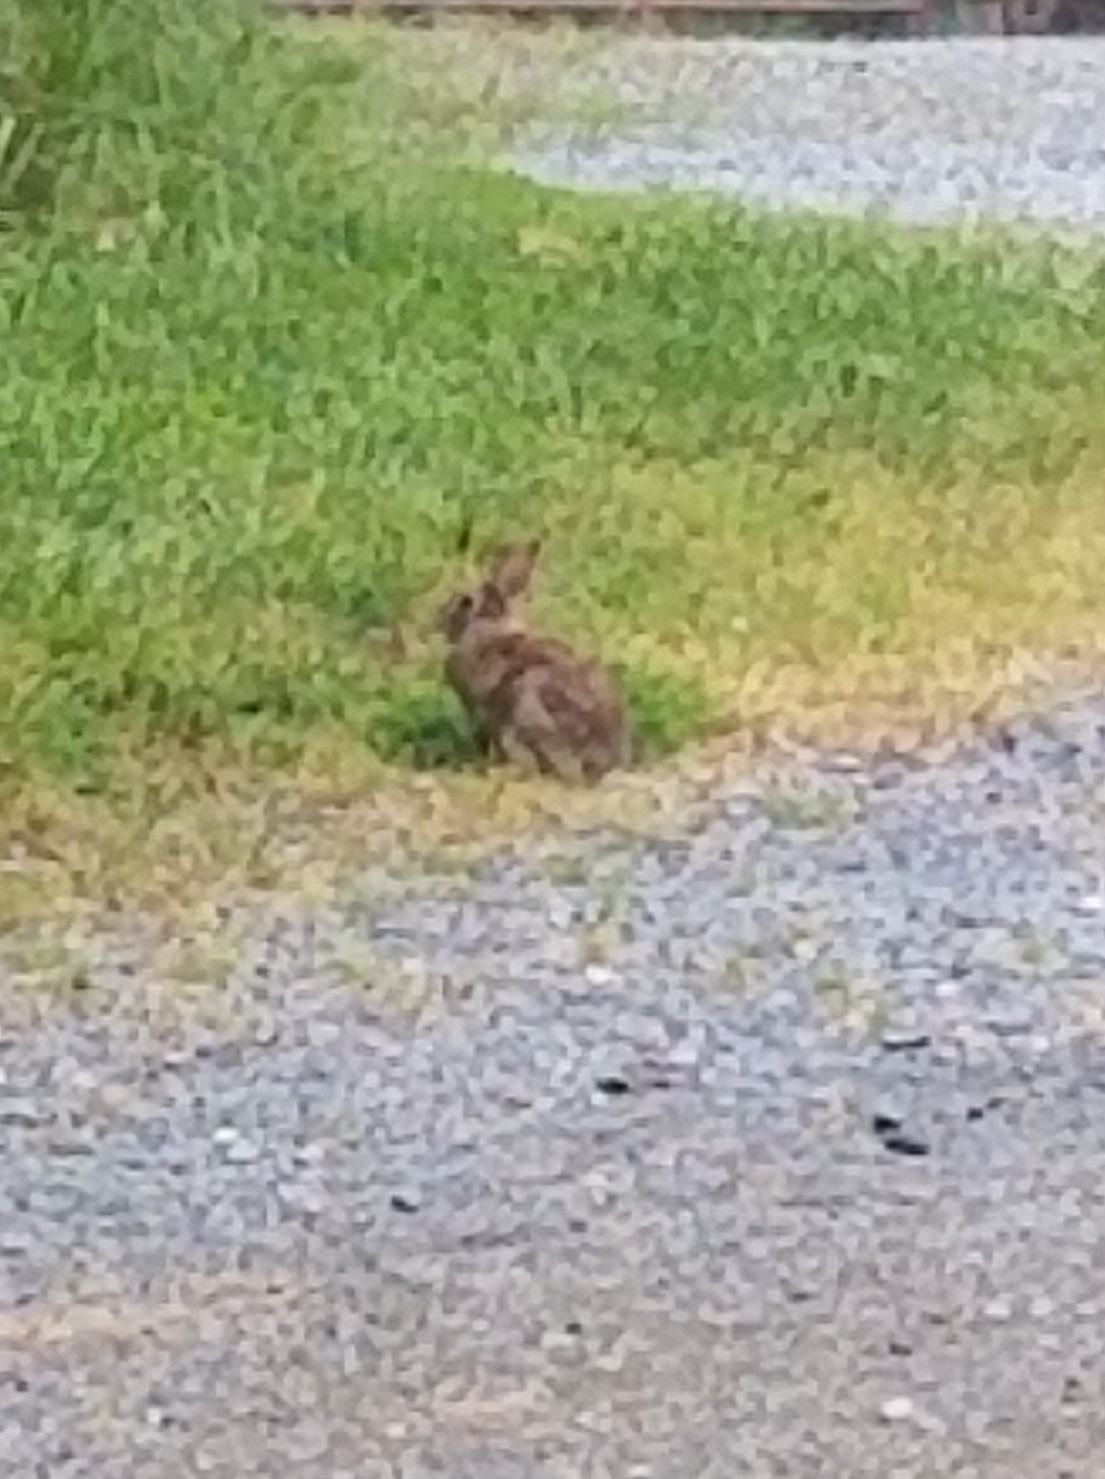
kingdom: Animalia
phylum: Chordata
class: Mammalia
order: Lagomorpha
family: Leporidae
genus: Sylvilagus
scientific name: Sylvilagus floridanus
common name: Eastern cottontail
